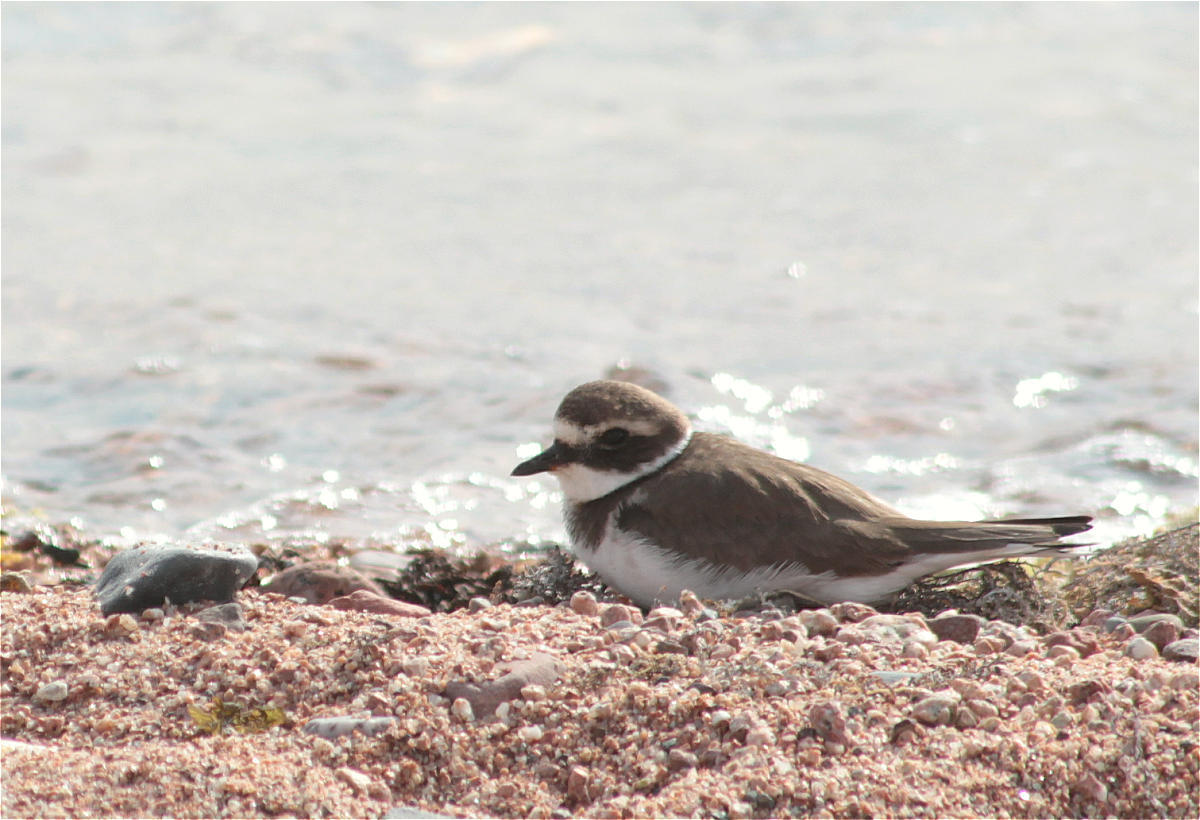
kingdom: Animalia
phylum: Chordata
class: Aves
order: Charadriiformes
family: Charadriidae
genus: Charadrius
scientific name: Charadrius hiaticula
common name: Common ringed plover
